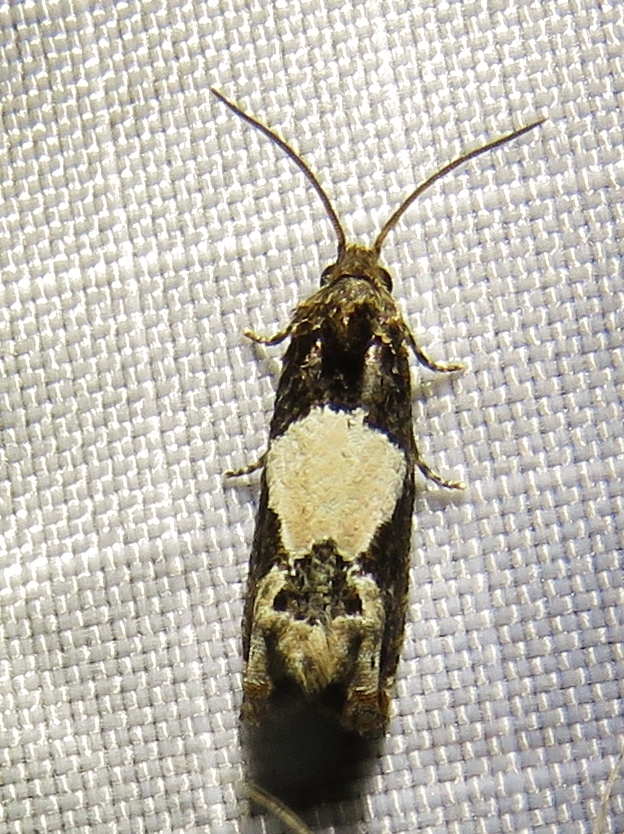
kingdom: Animalia
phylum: Arthropoda
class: Insecta
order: Lepidoptera
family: Tortricidae
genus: Epiblema
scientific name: Epiblema scudderiana
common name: Goldenrod gall moth
